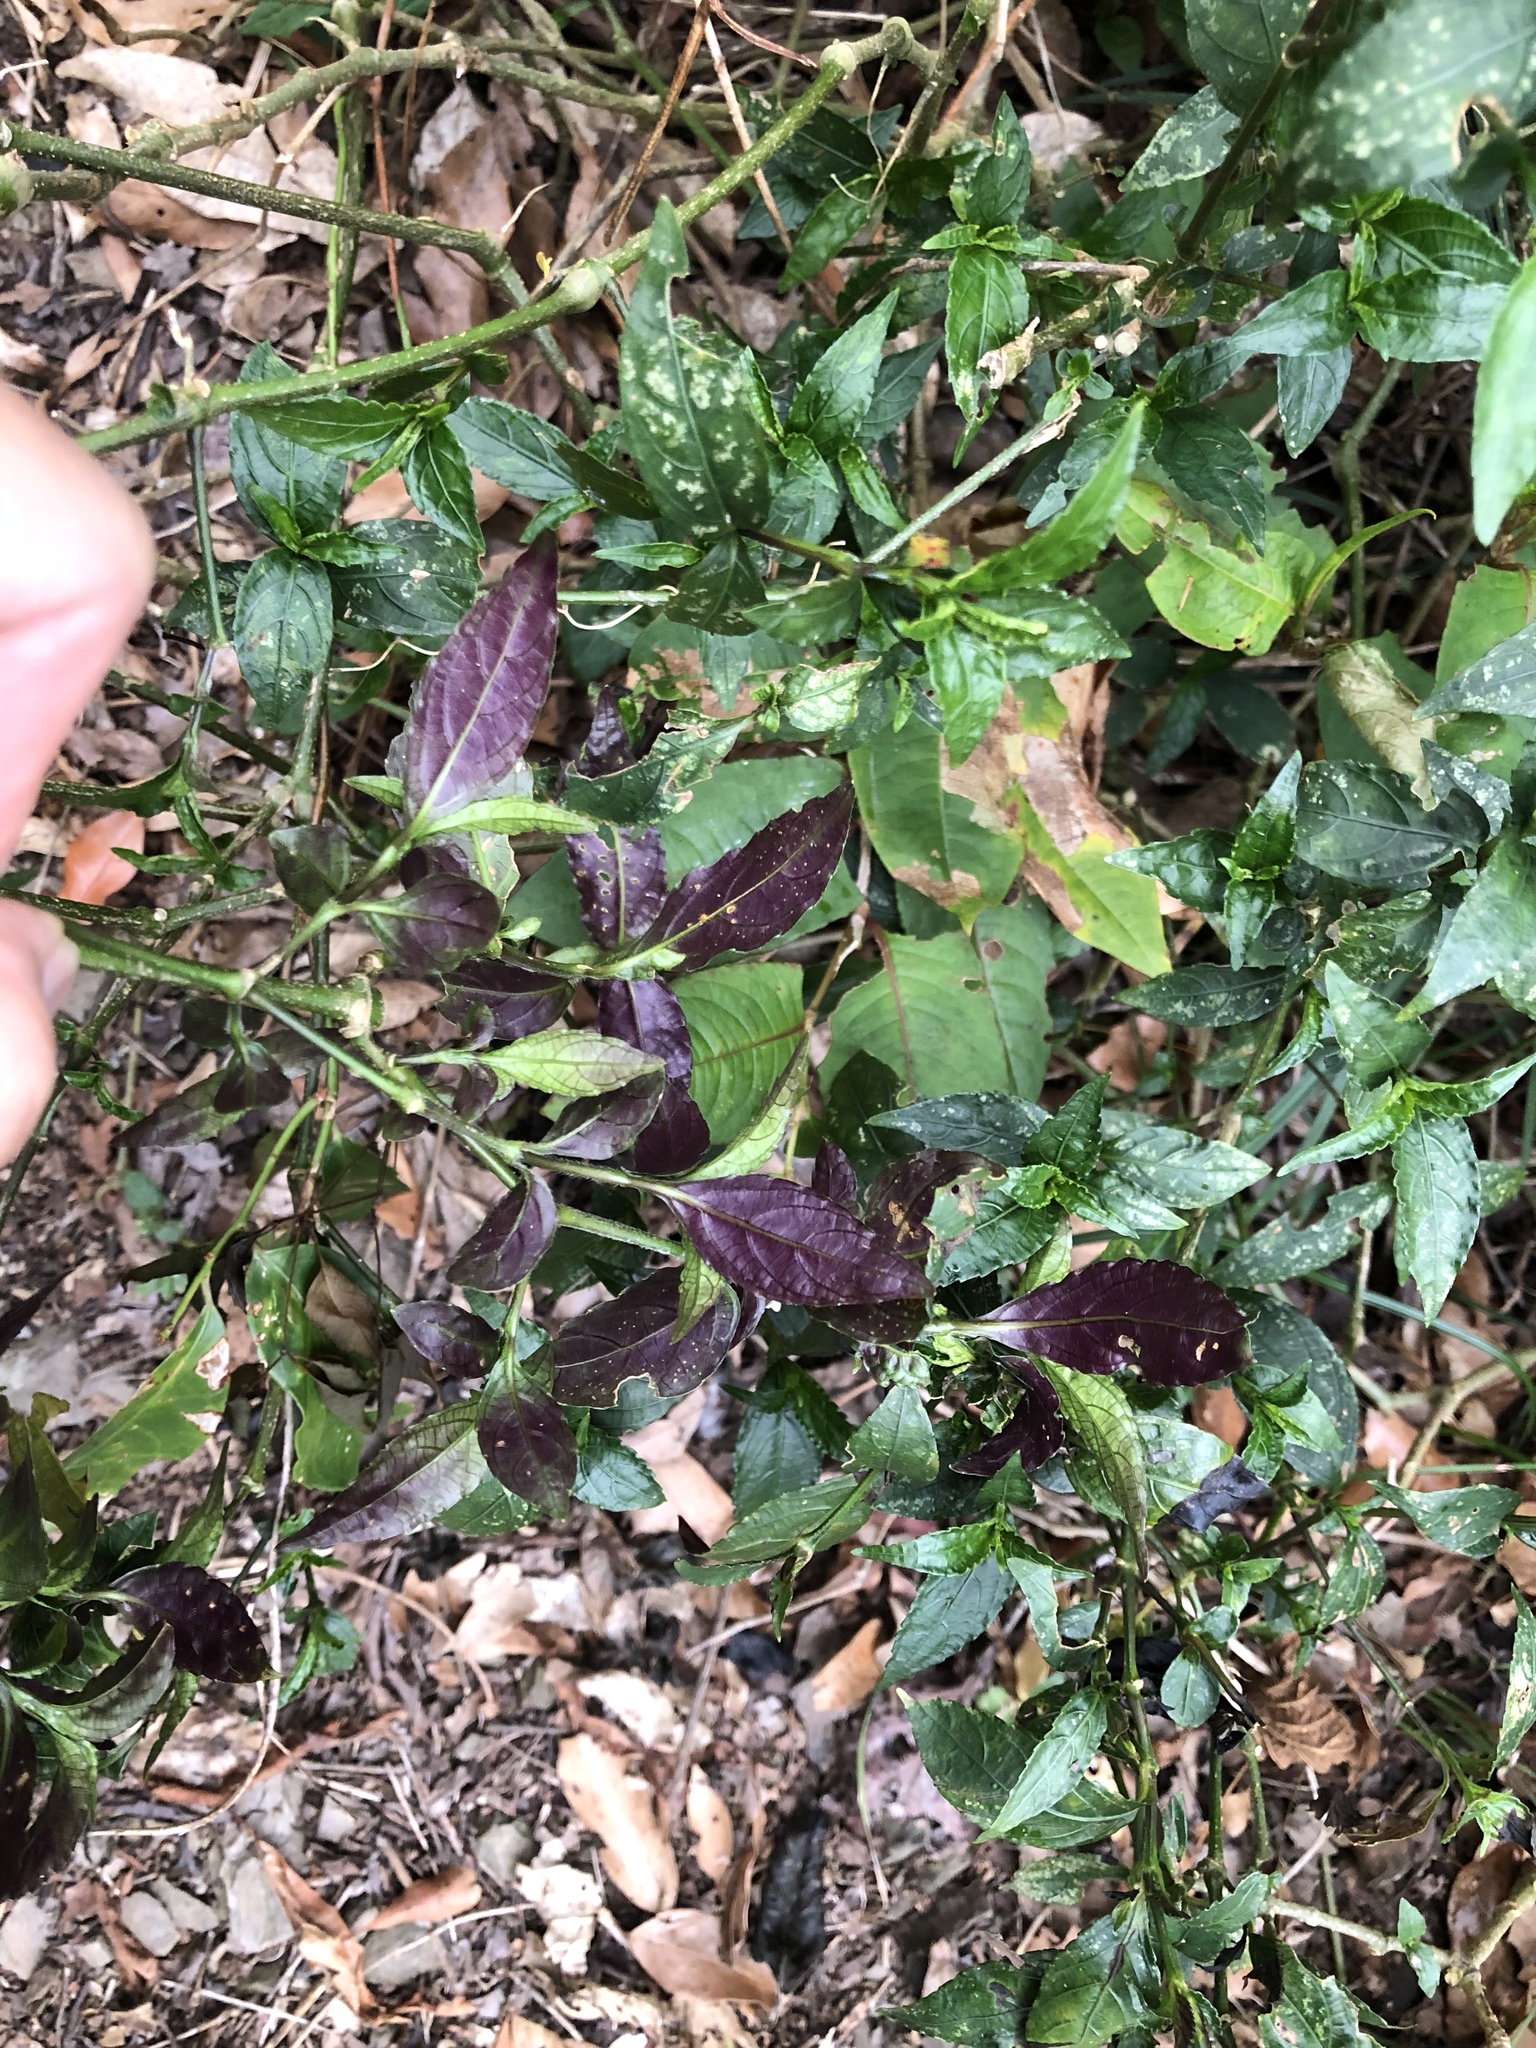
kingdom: Plantae
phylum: Tracheophyta
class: Magnoliopsida
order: Lamiales
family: Acanthaceae
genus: Strobilanthes
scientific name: Strobilanthes flexicaulis
